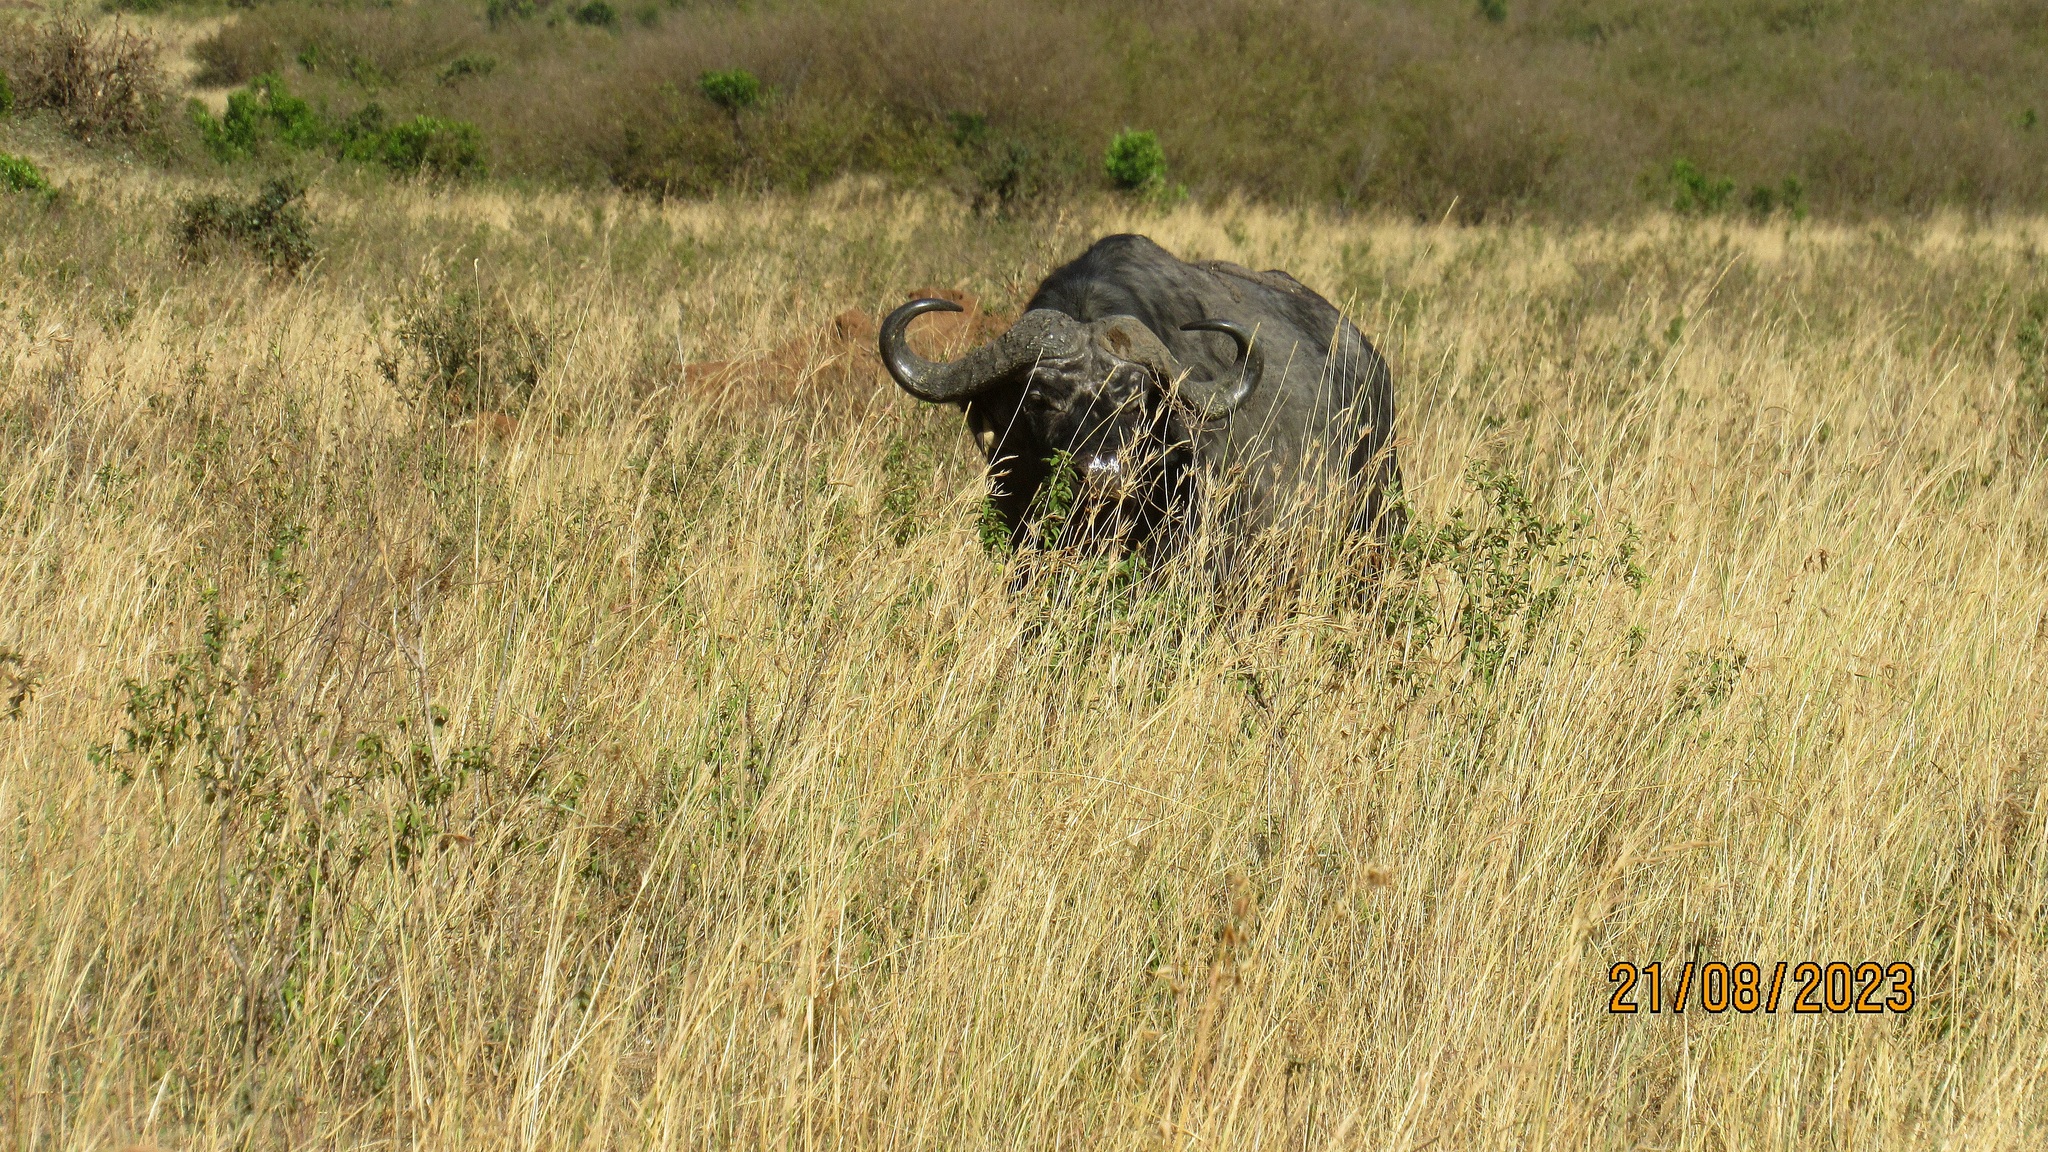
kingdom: Animalia
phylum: Chordata
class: Mammalia
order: Artiodactyla
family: Bovidae
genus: Syncerus
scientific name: Syncerus caffer
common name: African buffalo
